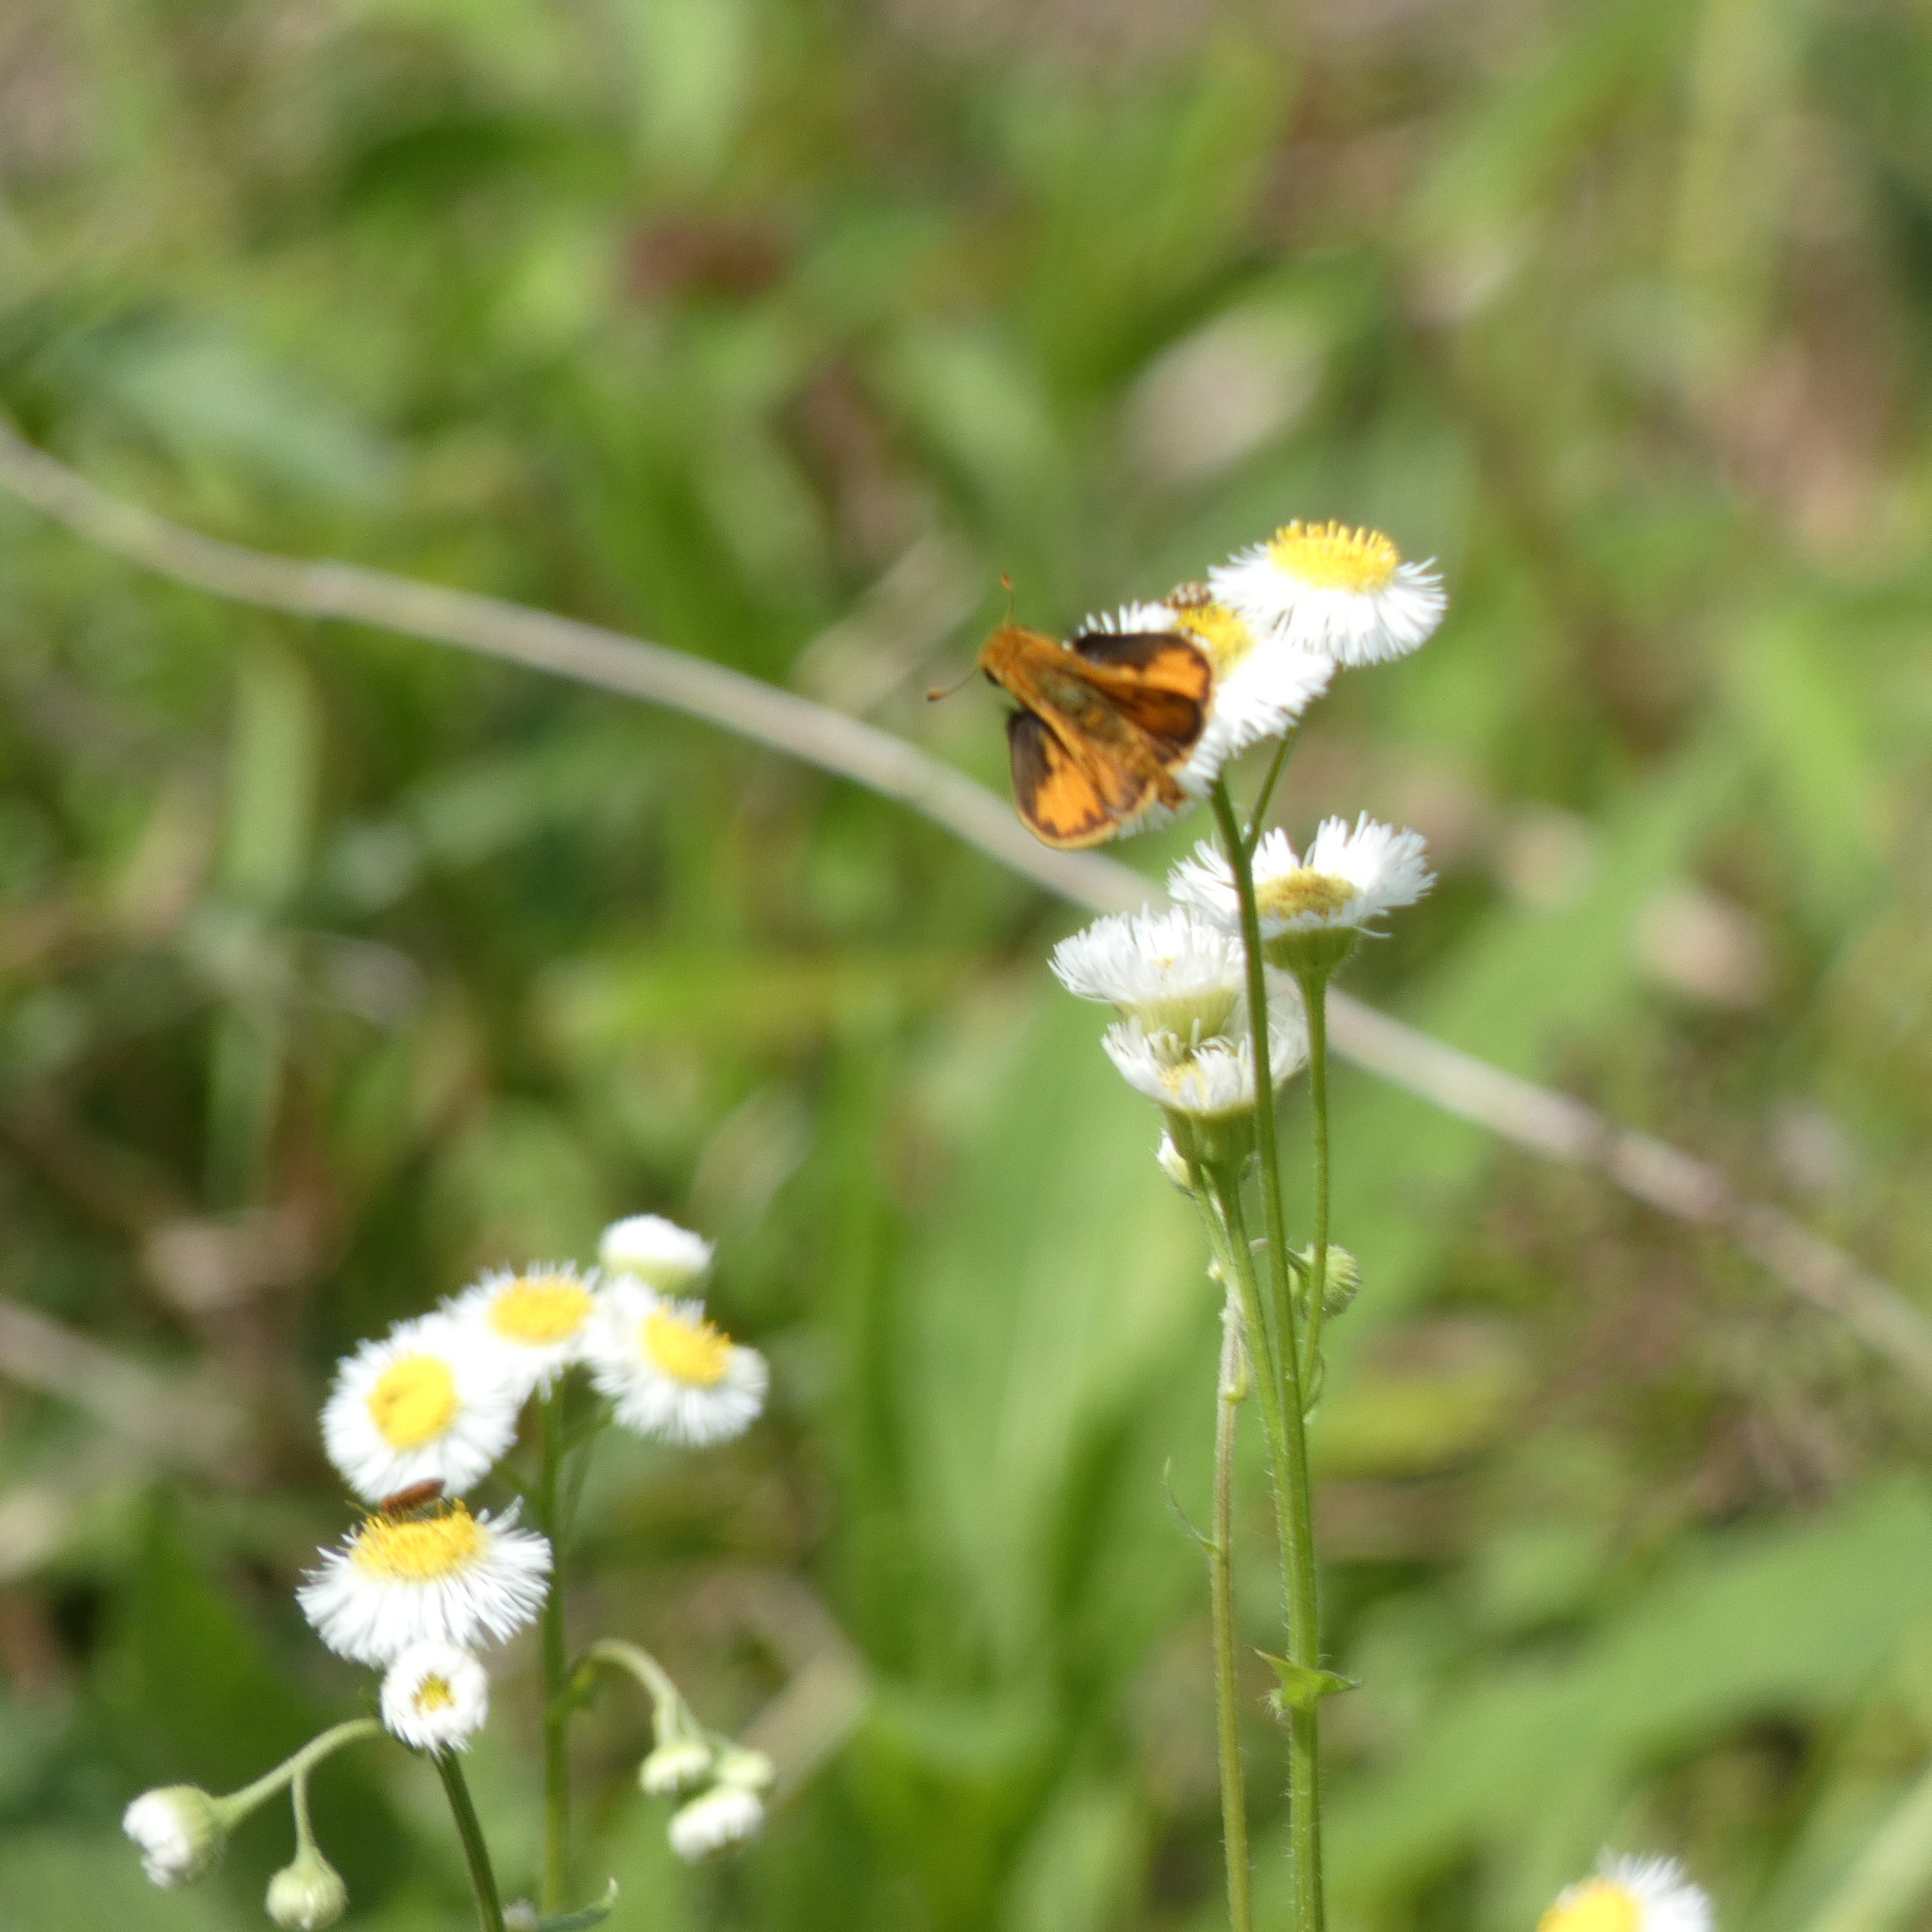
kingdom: Animalia
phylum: Arthropoda
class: Insecta
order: Lepidoptera
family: Hesperiidae
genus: Hylephila
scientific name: Hylephila phyleus
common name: Fiery skipper
